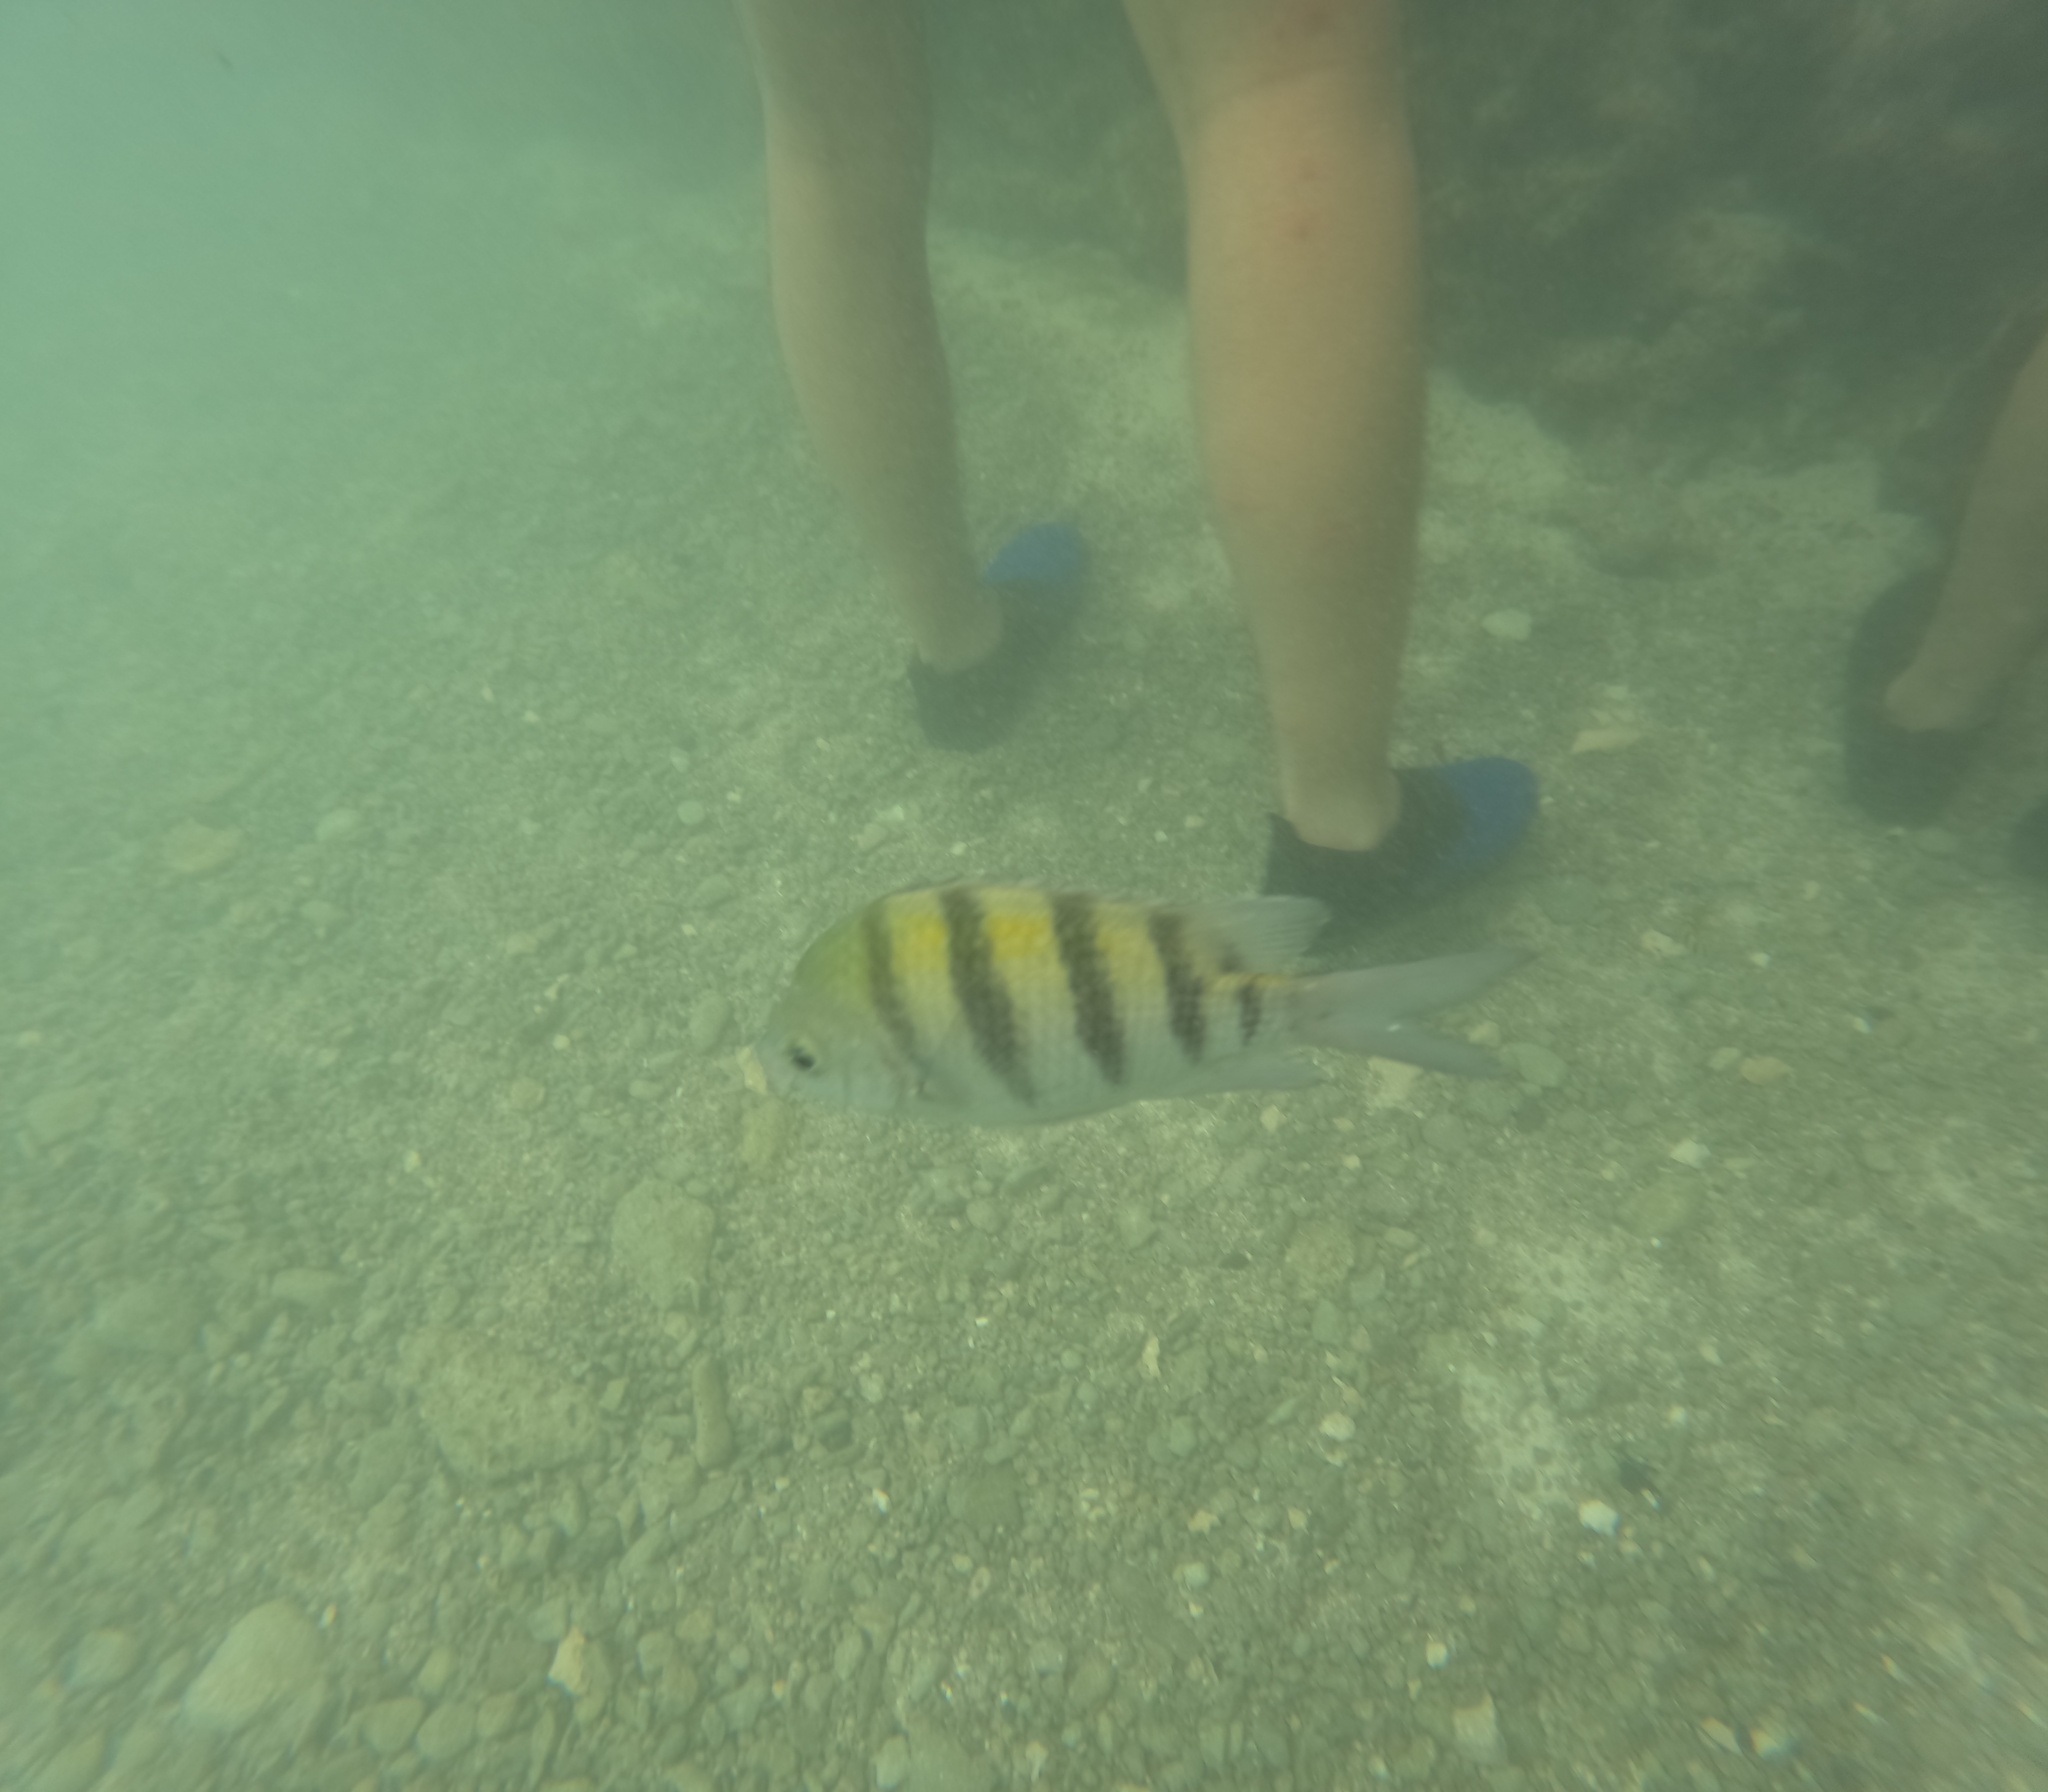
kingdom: Animalia
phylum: Chordata
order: Perciformes
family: Pomacentridae
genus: Abudefduf
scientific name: Abudefduf saxatilis
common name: Sergeant major
